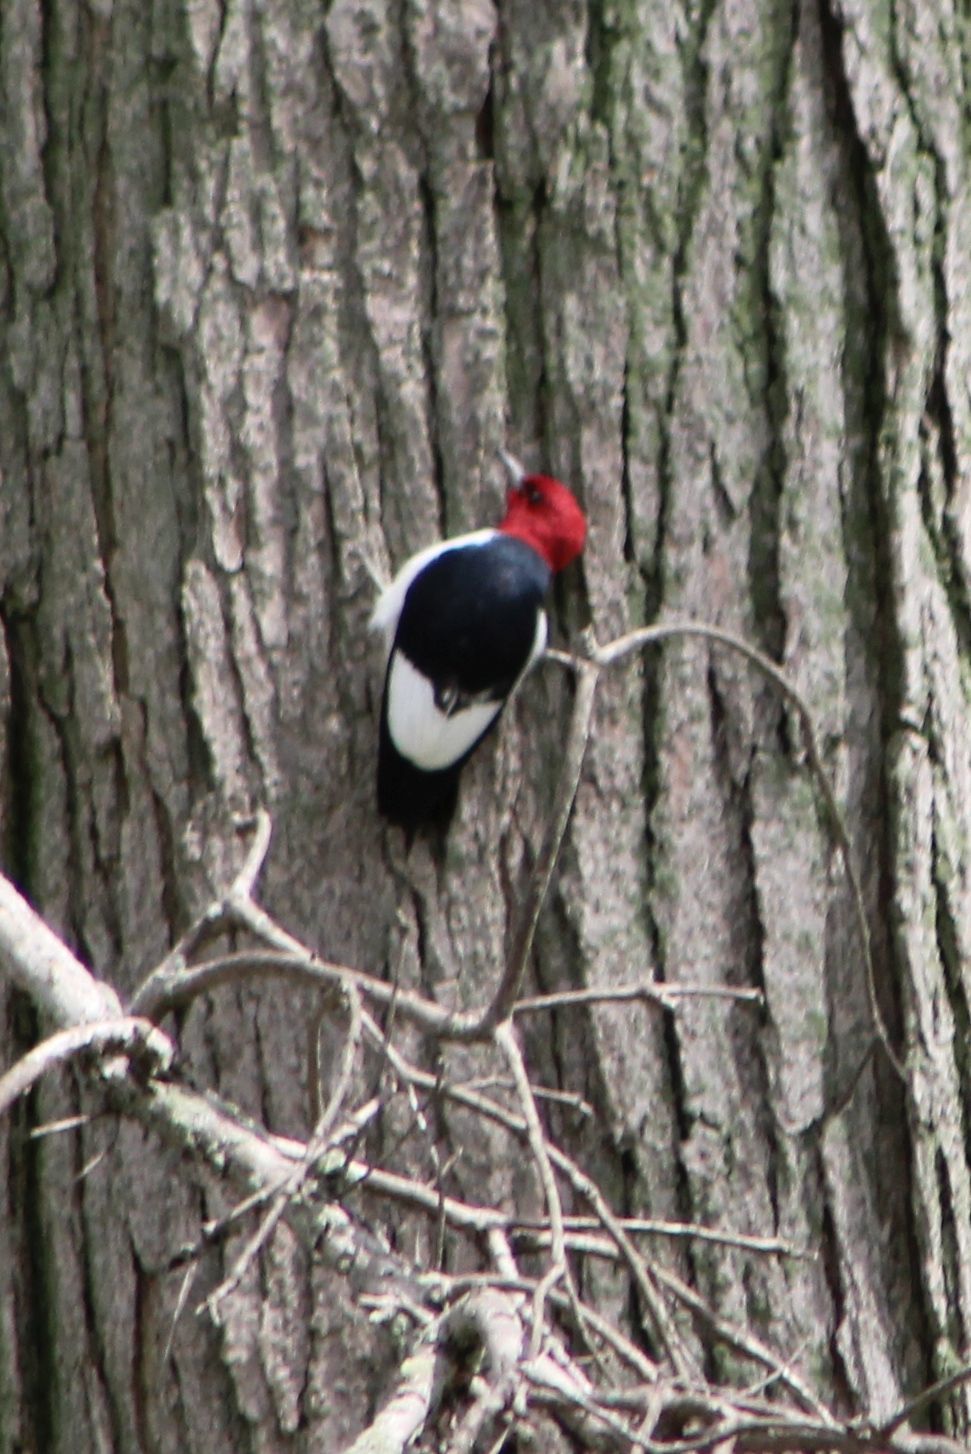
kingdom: Animalia
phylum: Chordata
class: Aves
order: Piciformes
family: Picidae
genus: Melanerpes
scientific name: Melanerpes erythrocephalus
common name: Red-headed woodpecker
